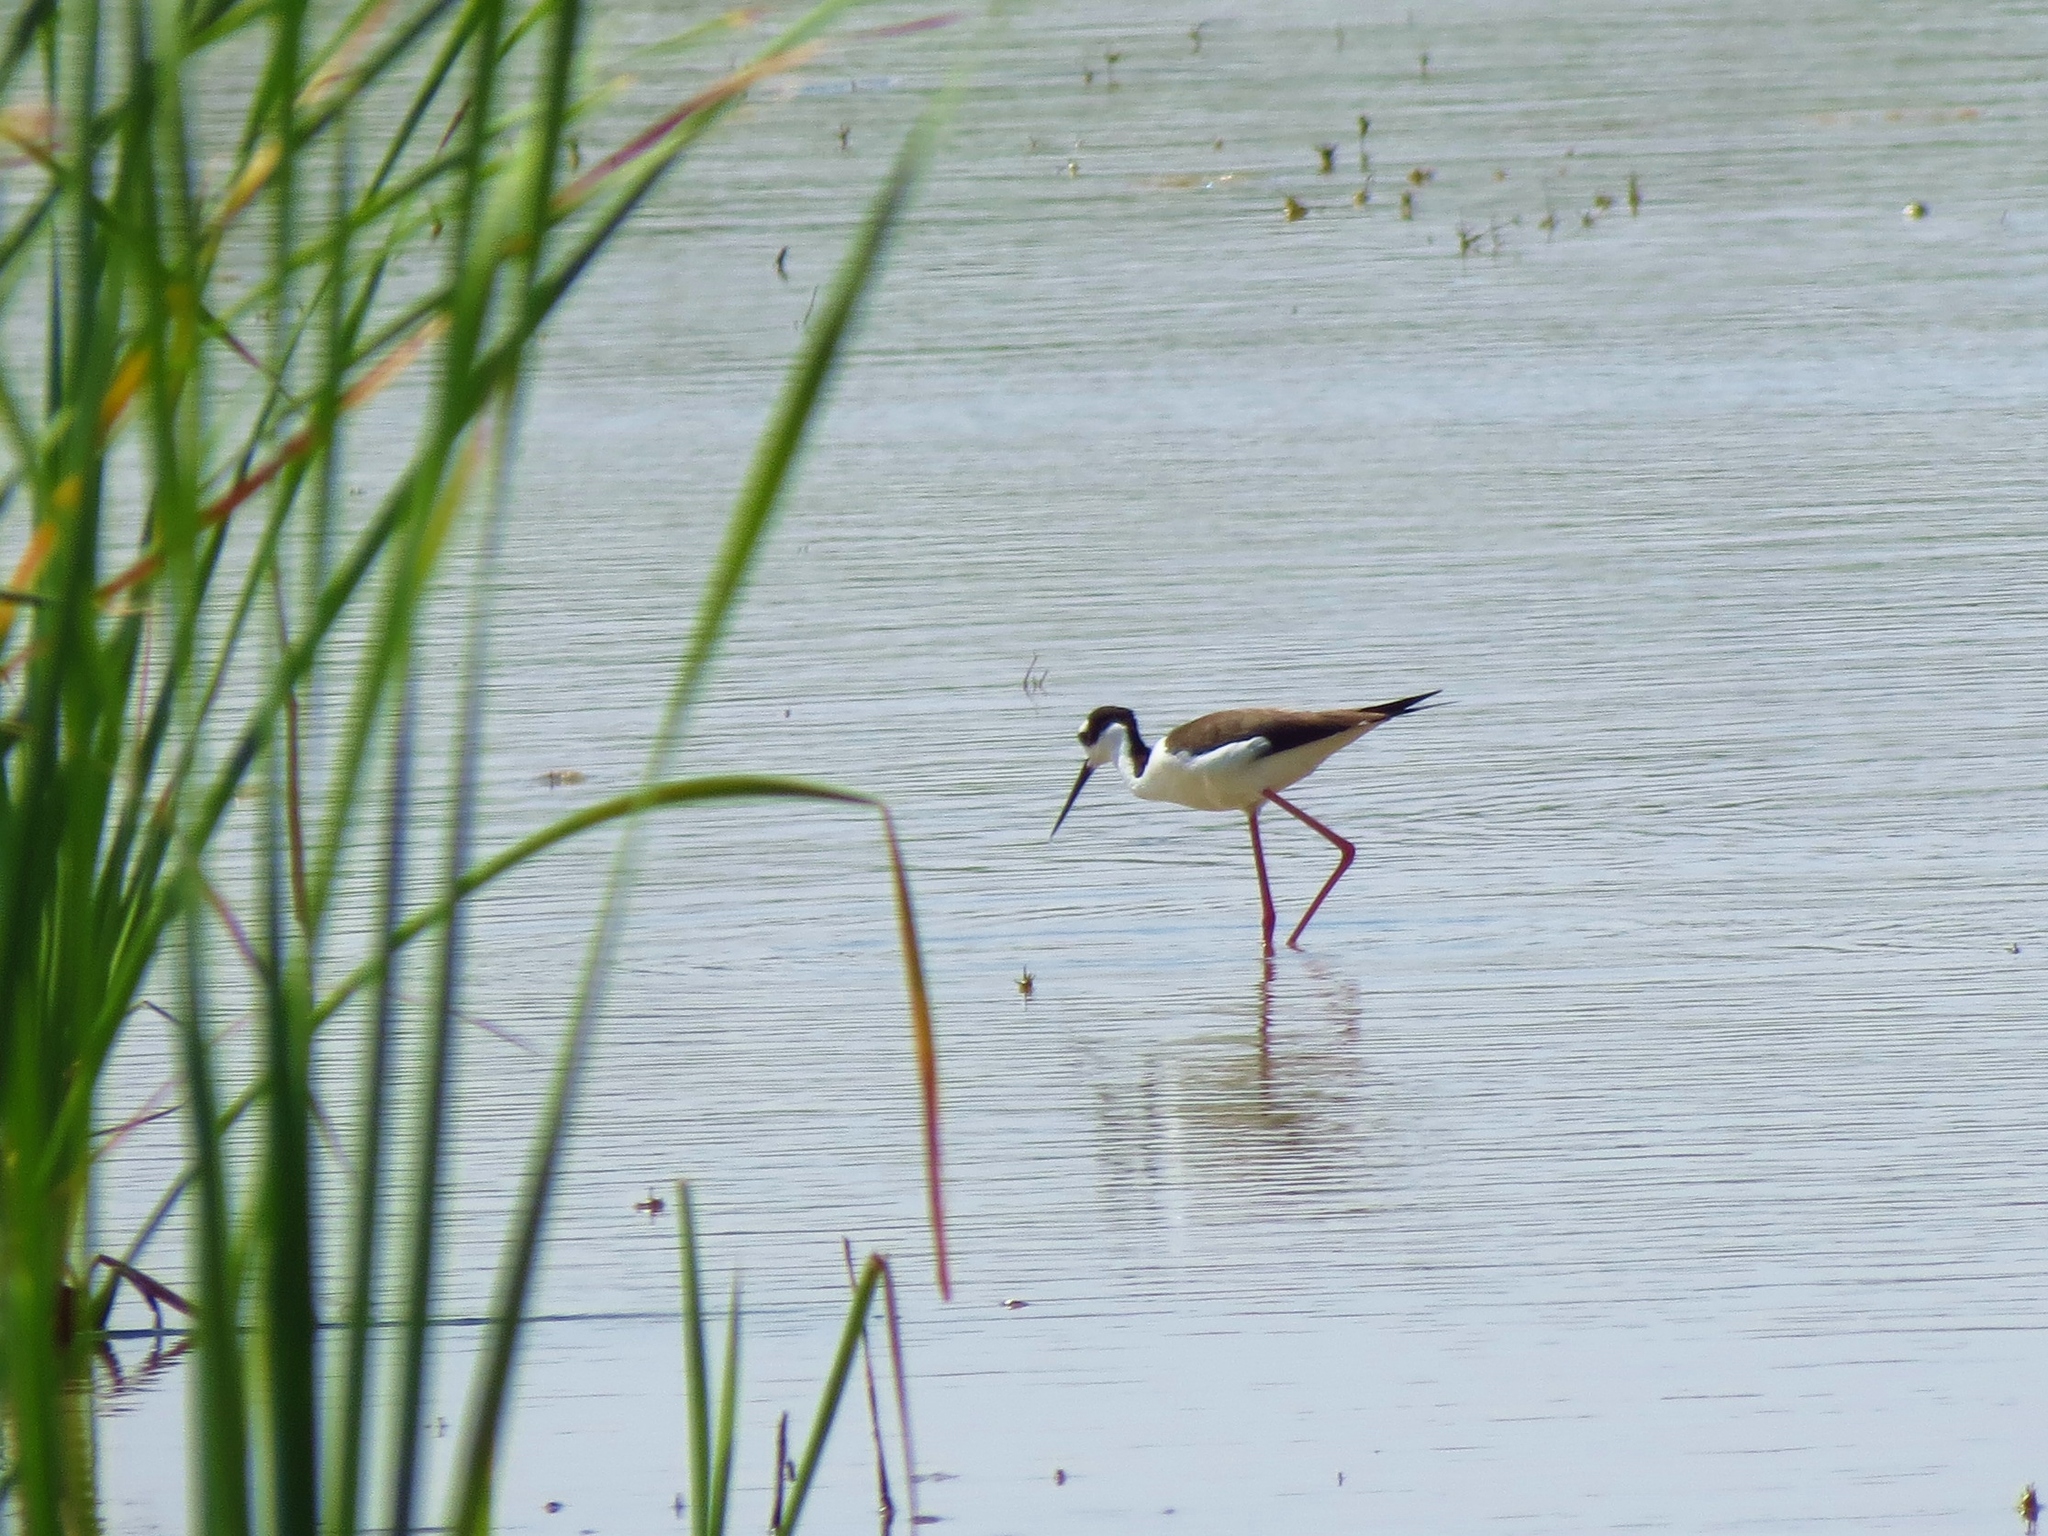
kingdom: Animalia
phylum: Chordata
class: Aves
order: Charadriiformes
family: Recurvirostridae
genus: Himantopus
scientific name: Himantopus mexicanus
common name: Black-necked stilt
